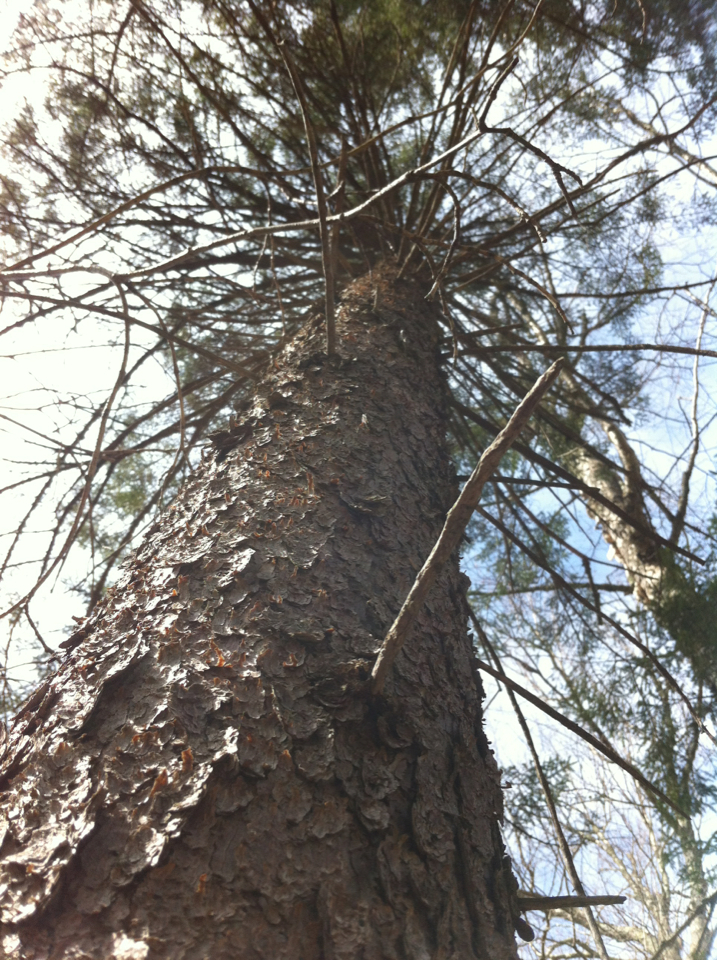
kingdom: Plantae
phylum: Tracheophyta
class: Pinopsida
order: Pinales
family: Pinaceae
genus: Picea
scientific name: Picea rubens
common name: Red spruce
